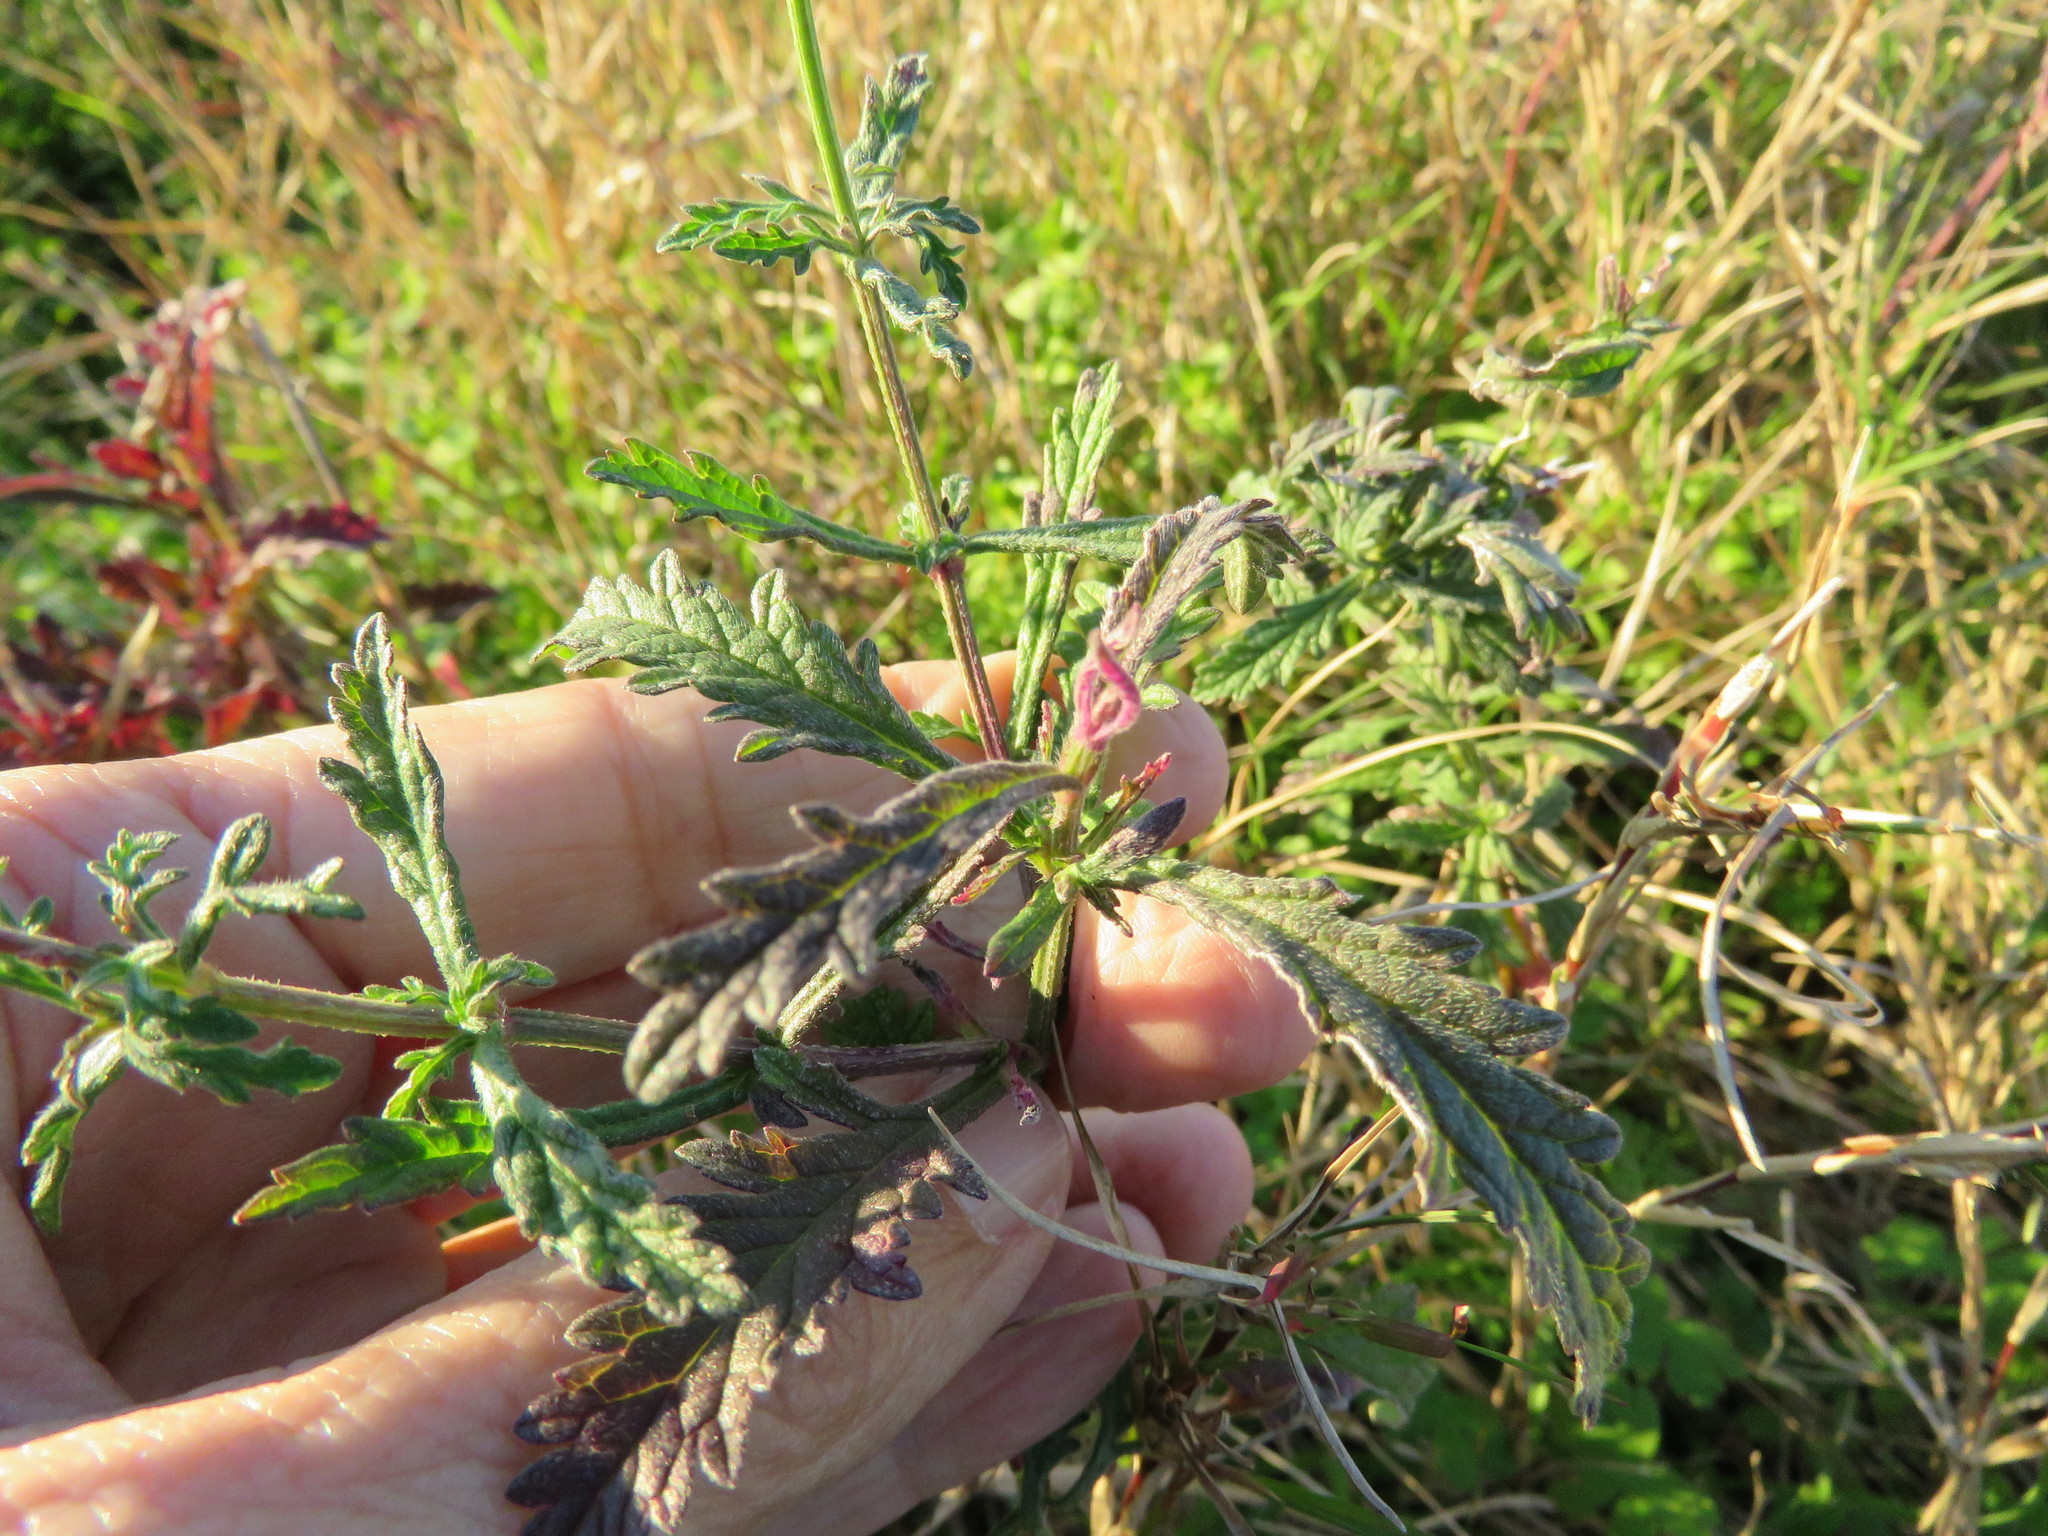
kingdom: Plantae
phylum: Tracheophyta
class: Magnoliopsida
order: Lamiales
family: Verbenaceae
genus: Verbena
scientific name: Verbena halei
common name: Texas vervain
